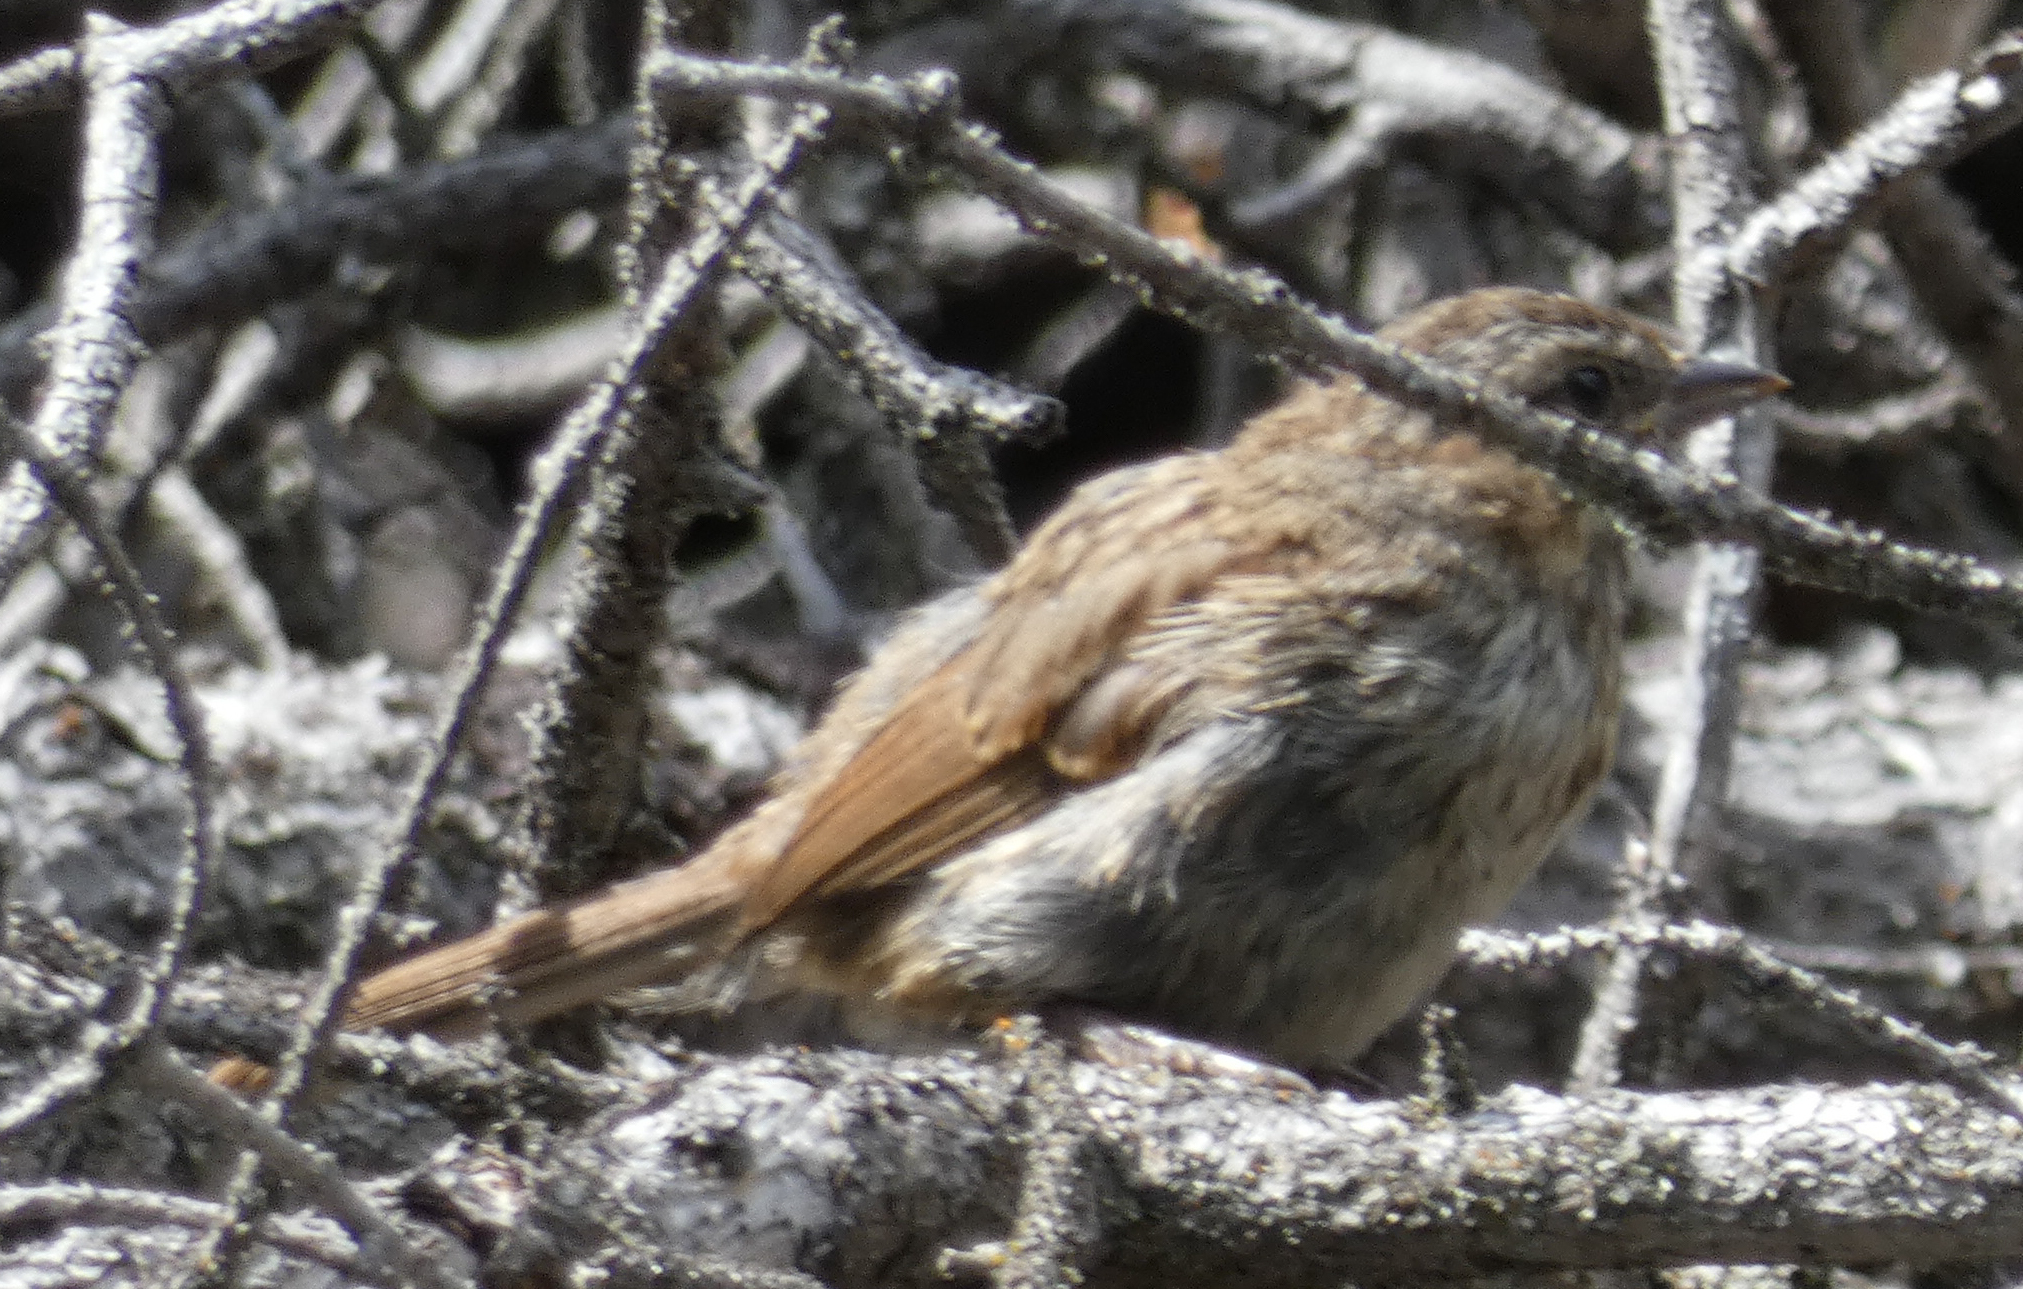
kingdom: Animalia
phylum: Chordata
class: Aves
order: Passeriformes
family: Passerellidae
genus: Melospiza
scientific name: Melospiza melodia
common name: Song sparrow
